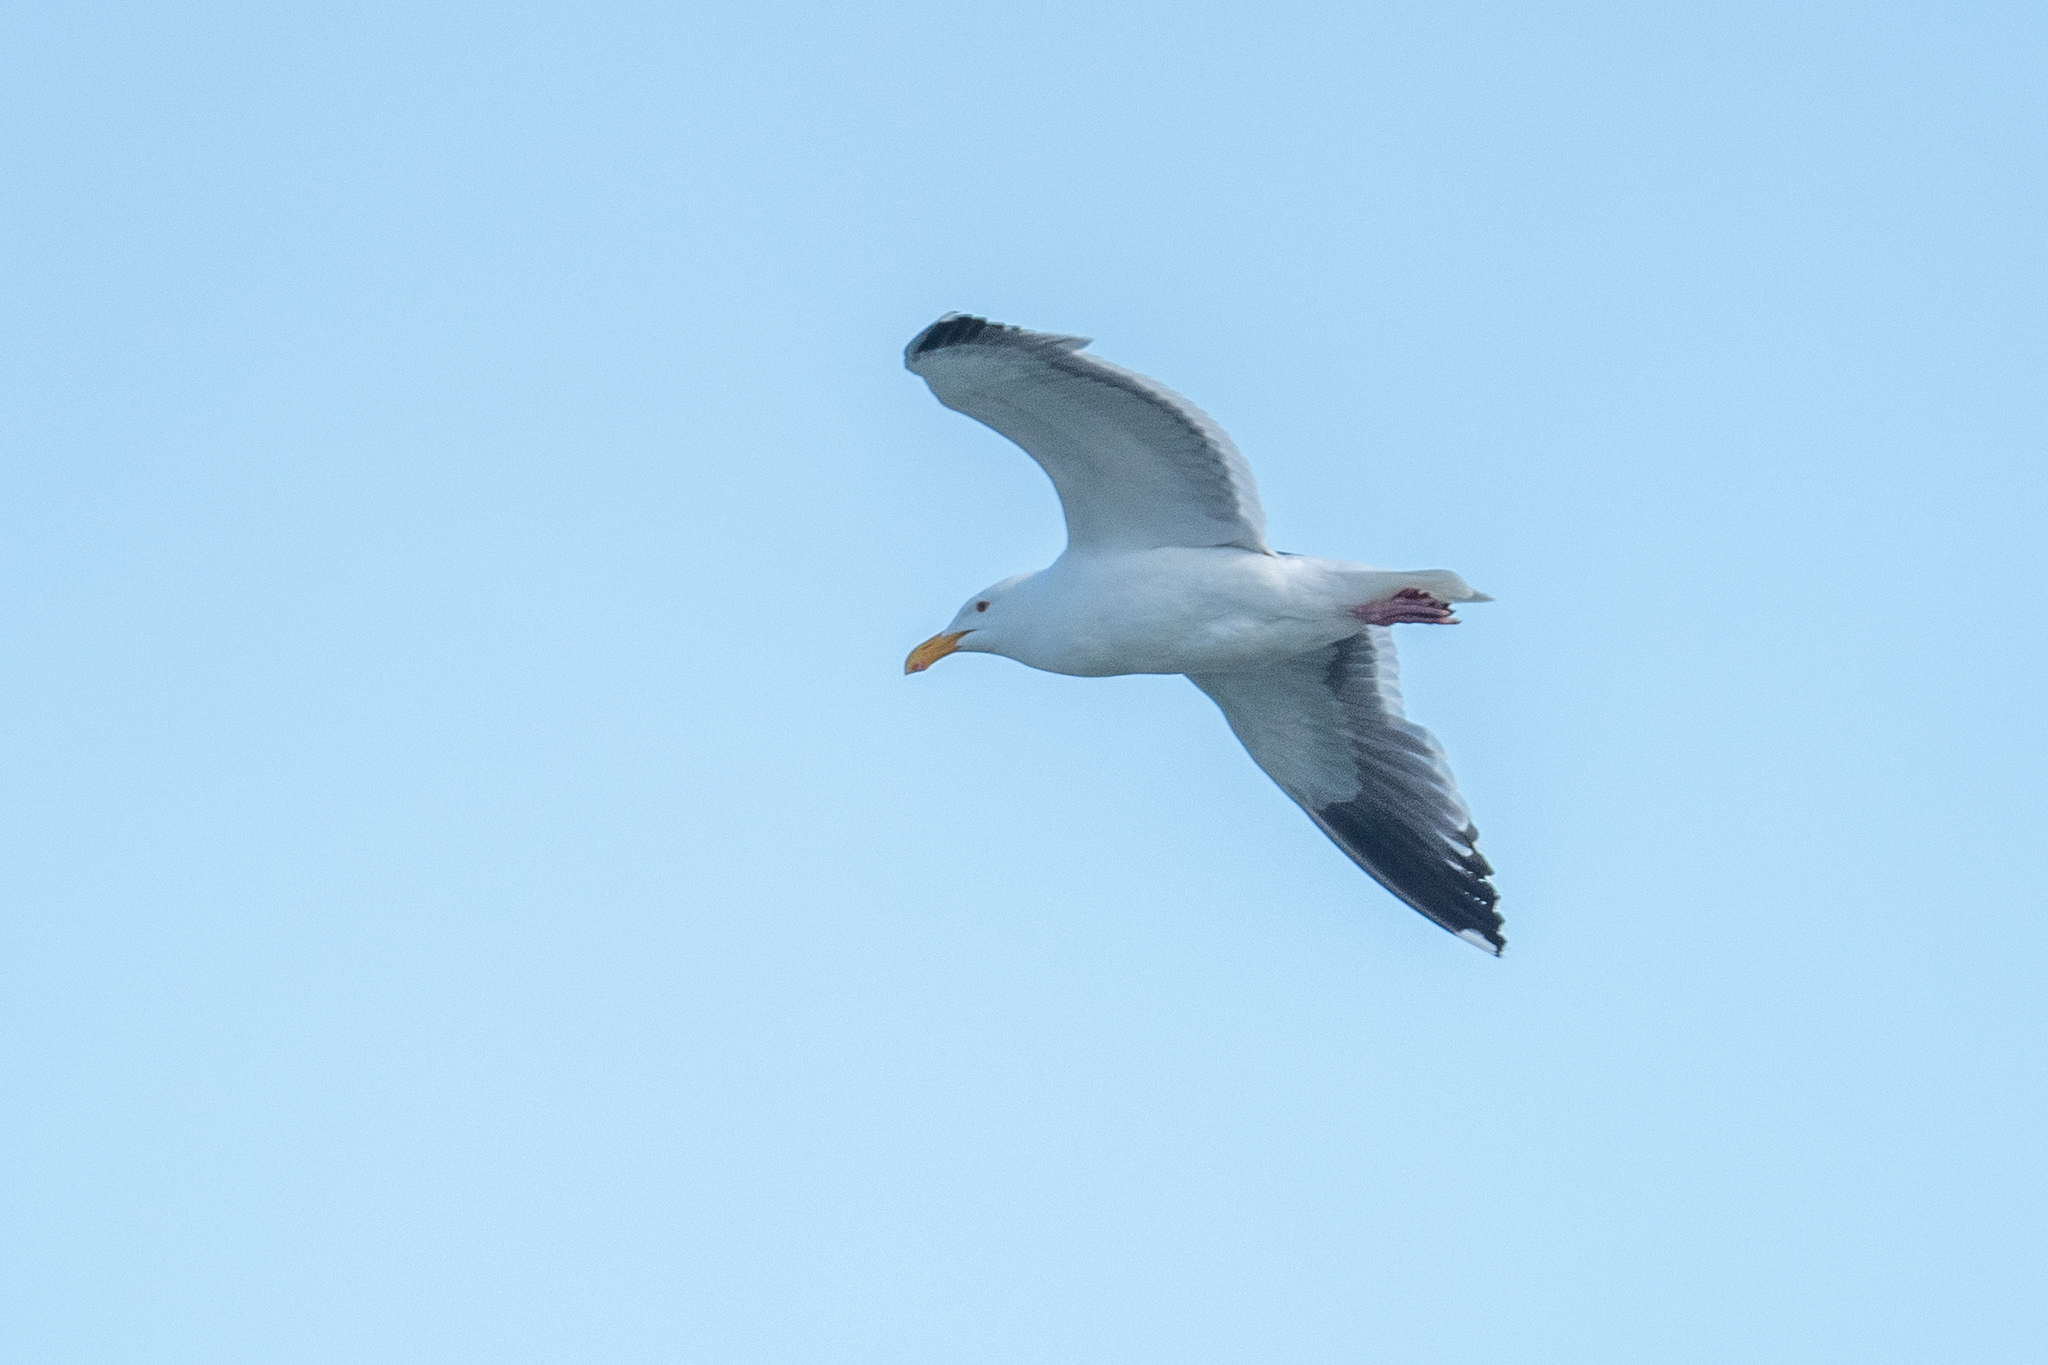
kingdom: Animalia
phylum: Chordata
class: Aves
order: Charadriiformes
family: Laridae
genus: Larus
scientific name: Larus occidentalis
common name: Western gull
